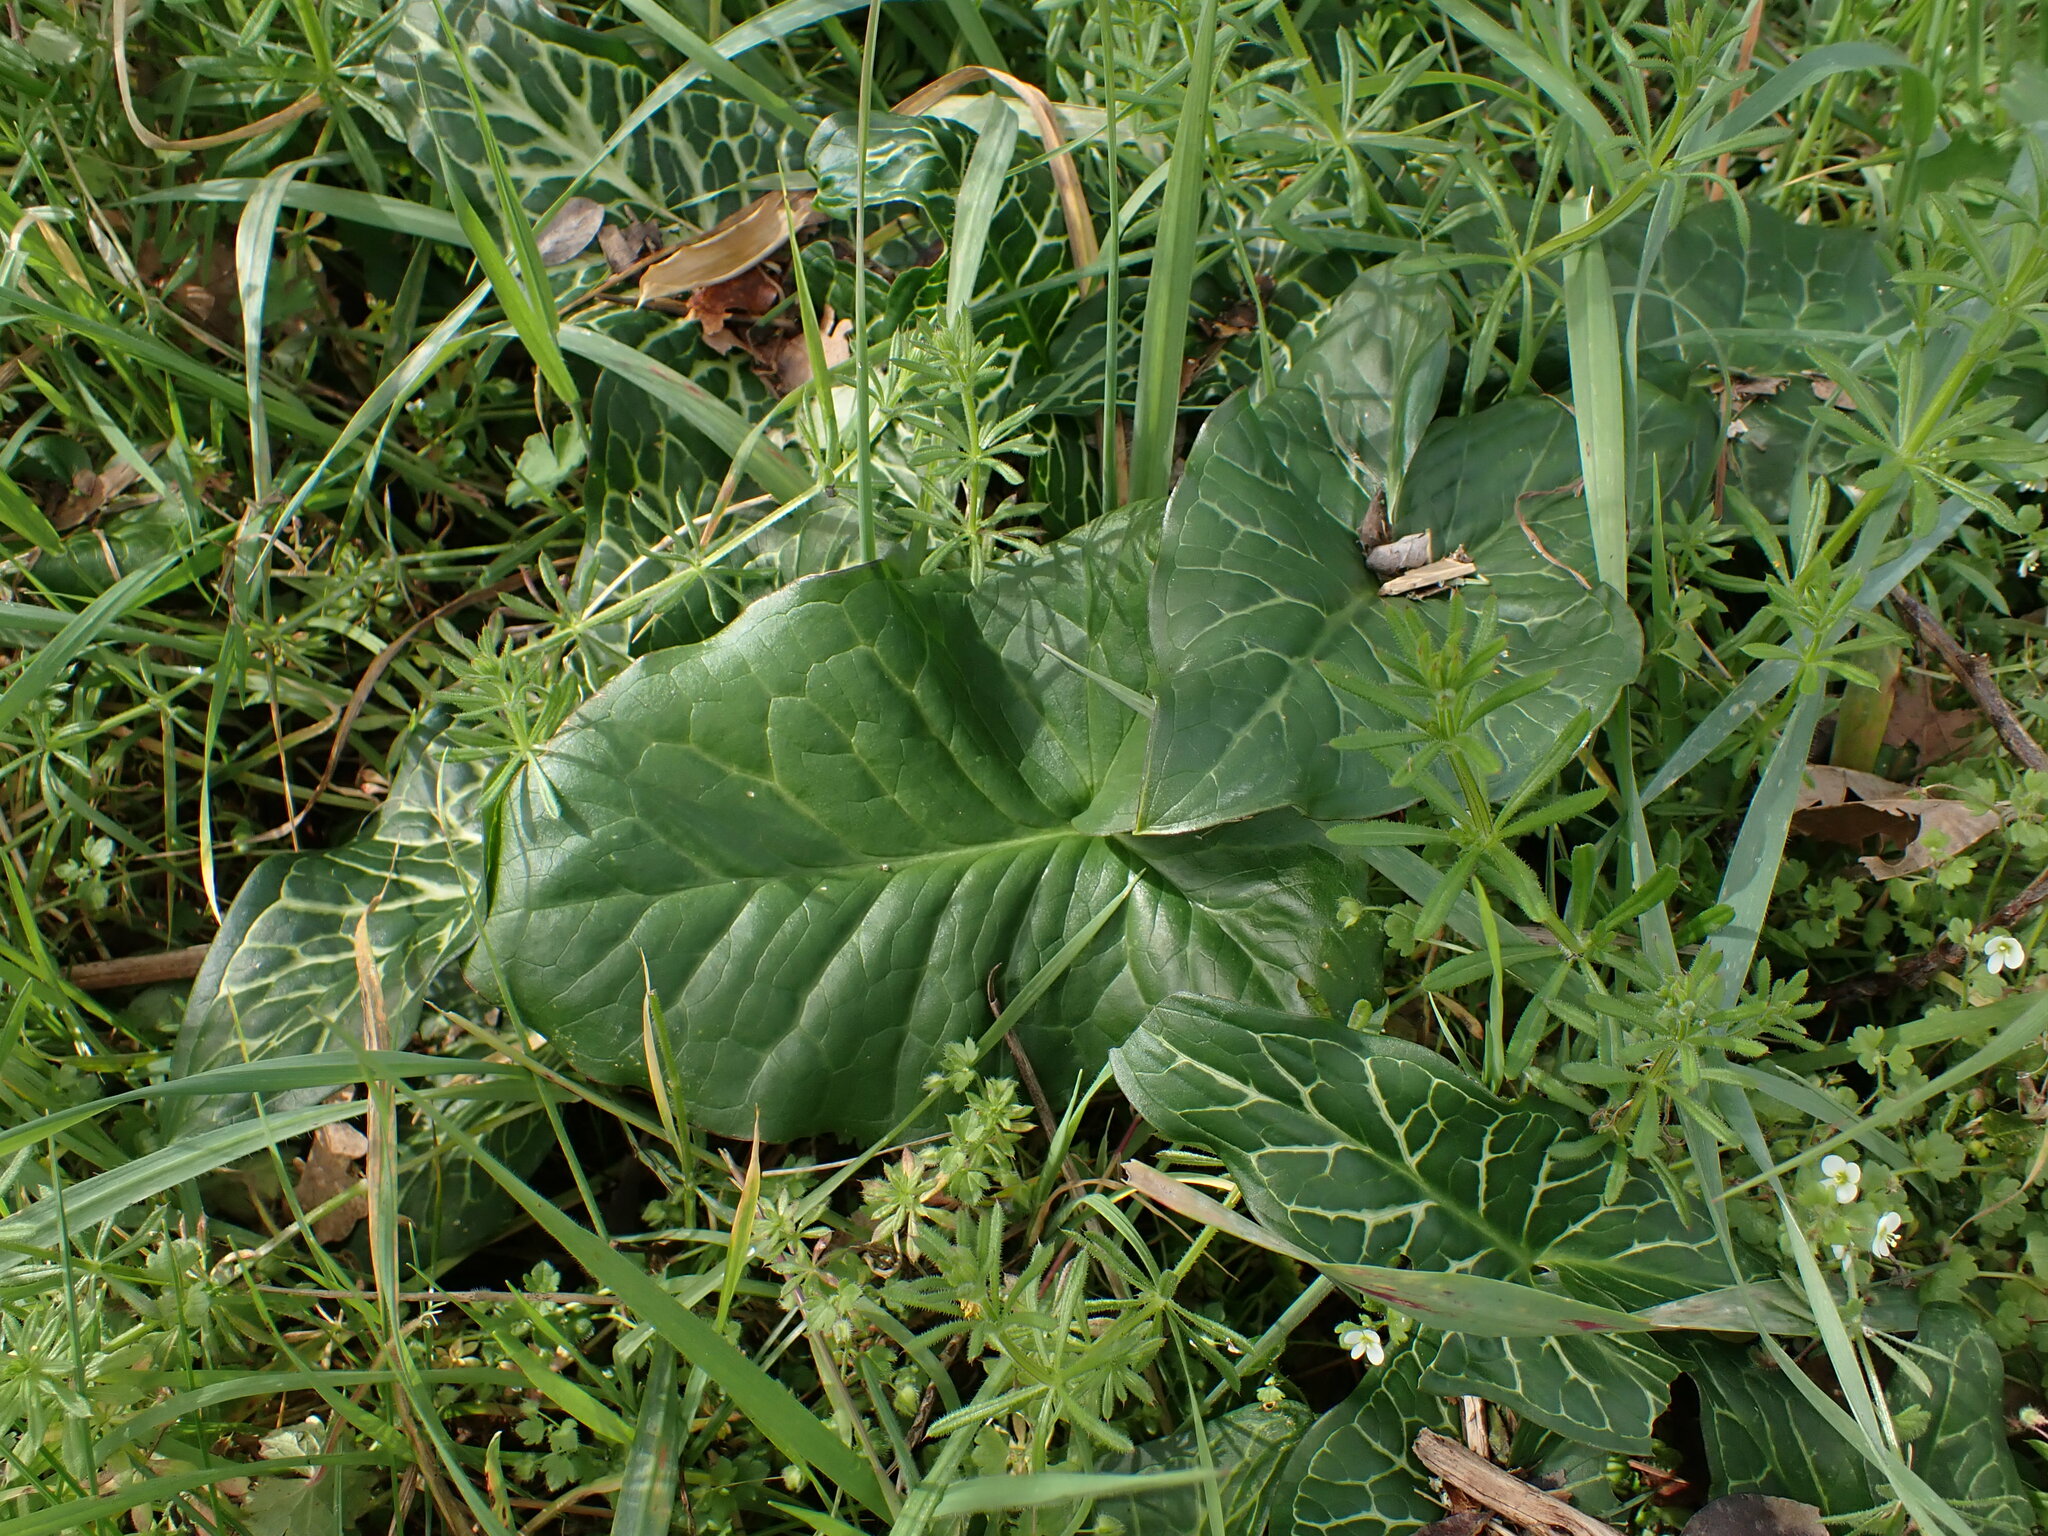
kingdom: Plantae
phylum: Tracheophyta
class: Liliopsida
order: Alismatales
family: Araceae
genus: Arum
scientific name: Arum italicum
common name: Italian lords-and-ladies
